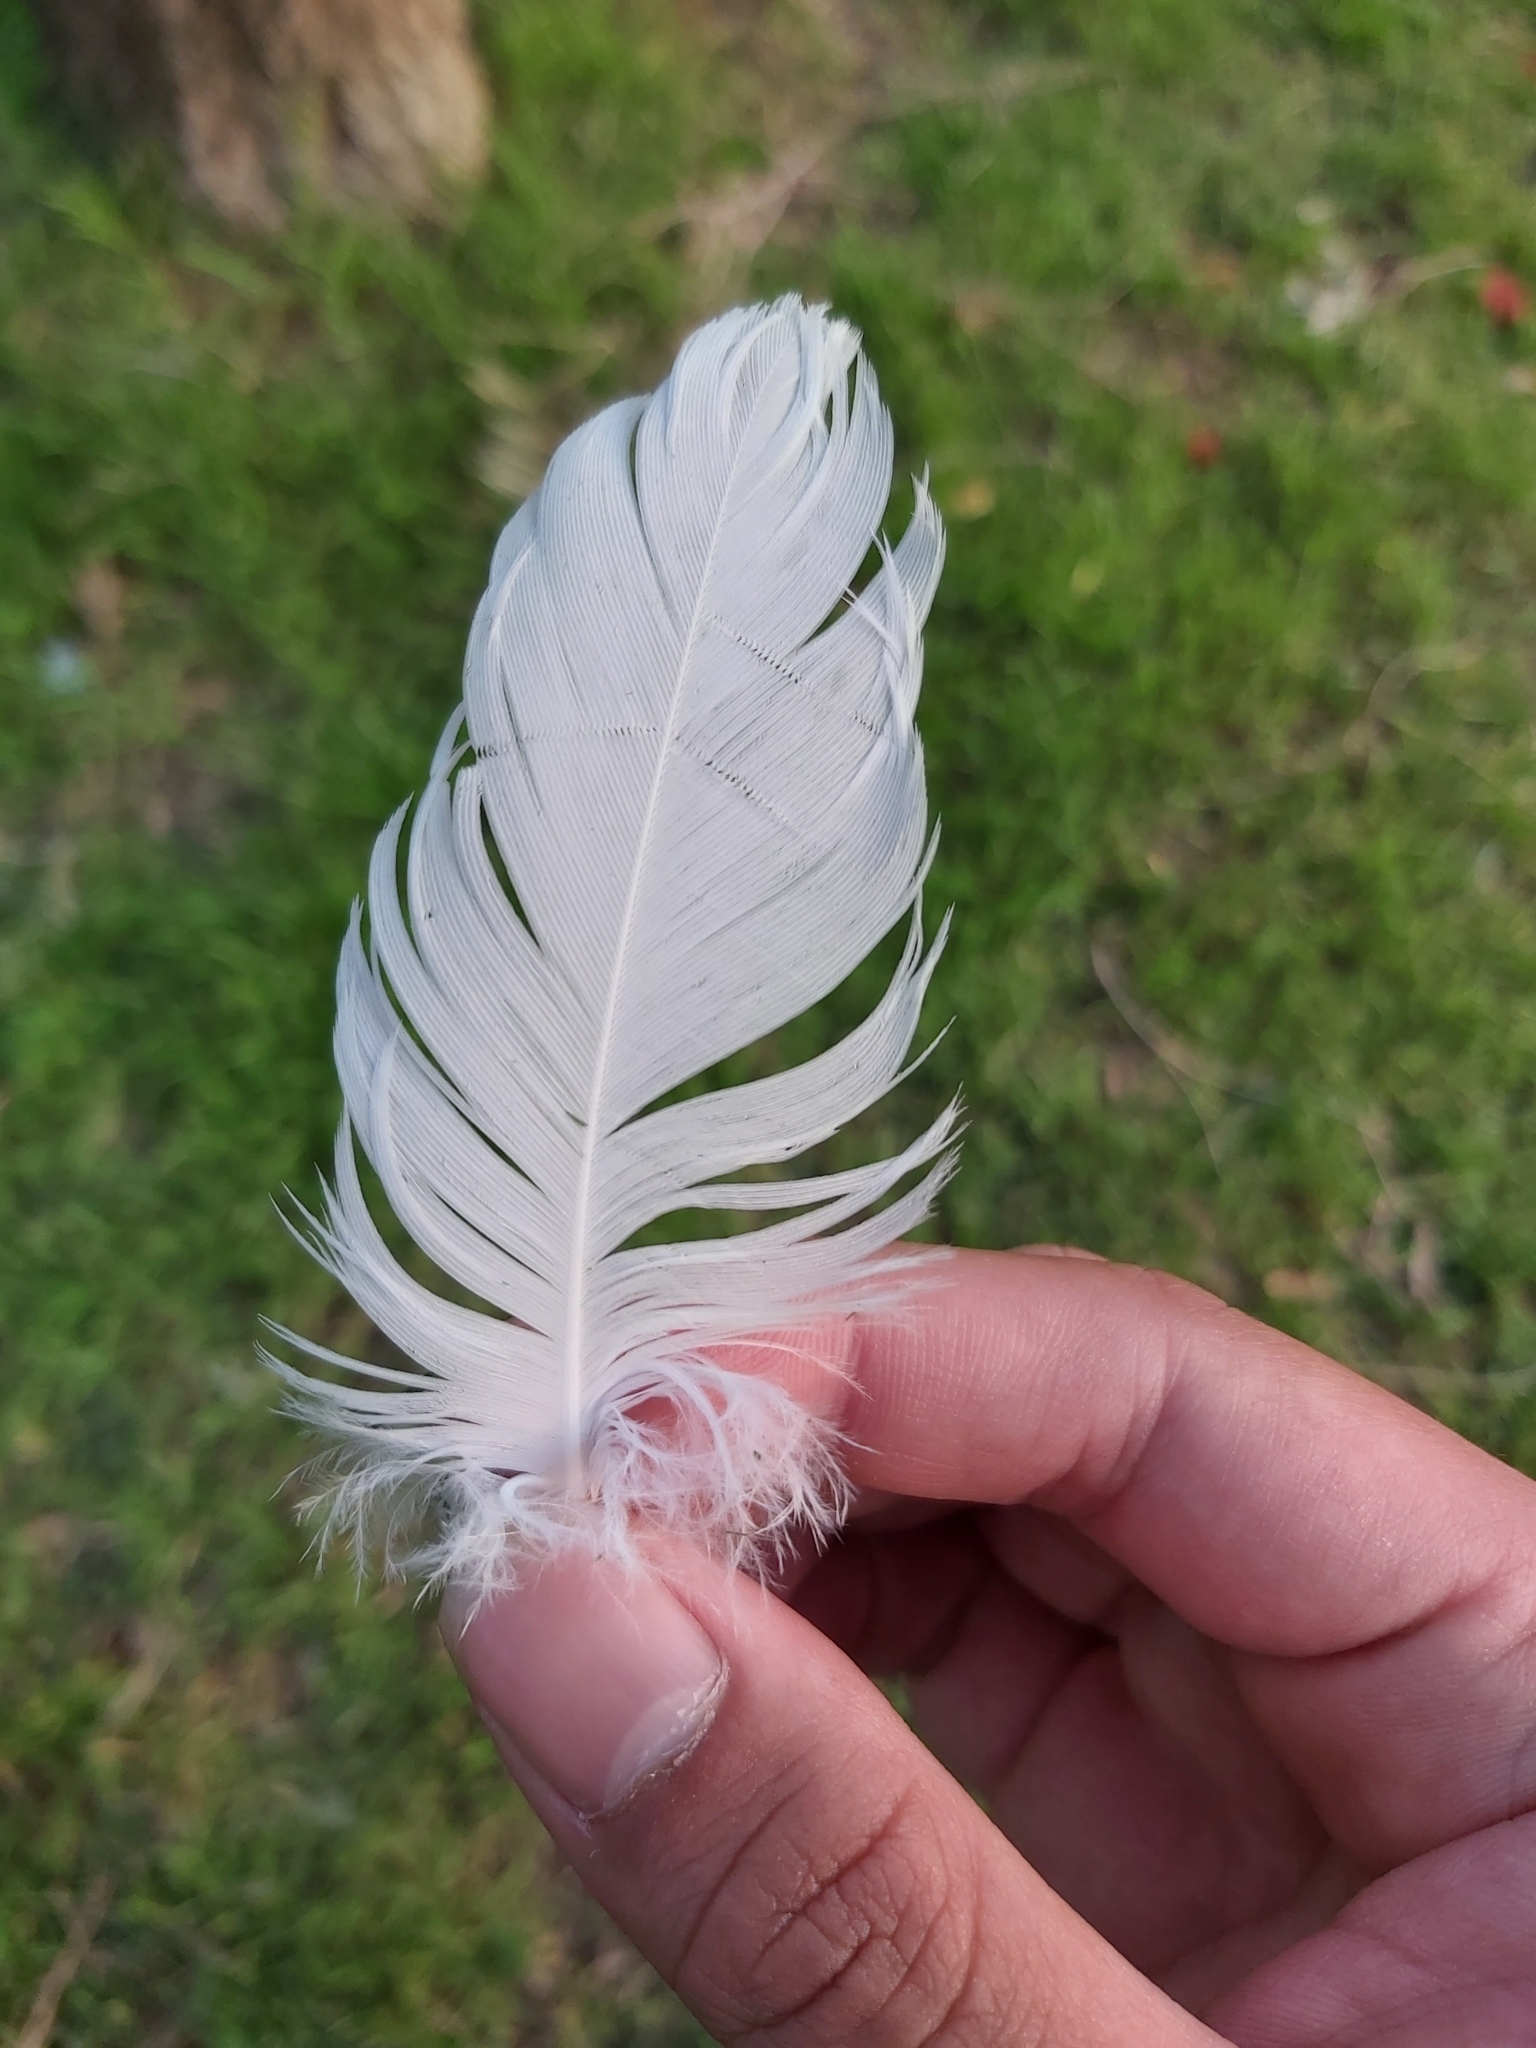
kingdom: Animalia
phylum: Chordata
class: Aves
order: Psittaciformes
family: Psittacidae
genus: Cacatua
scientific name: Cacatua galerita
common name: Sulphur-crested cockatoo
